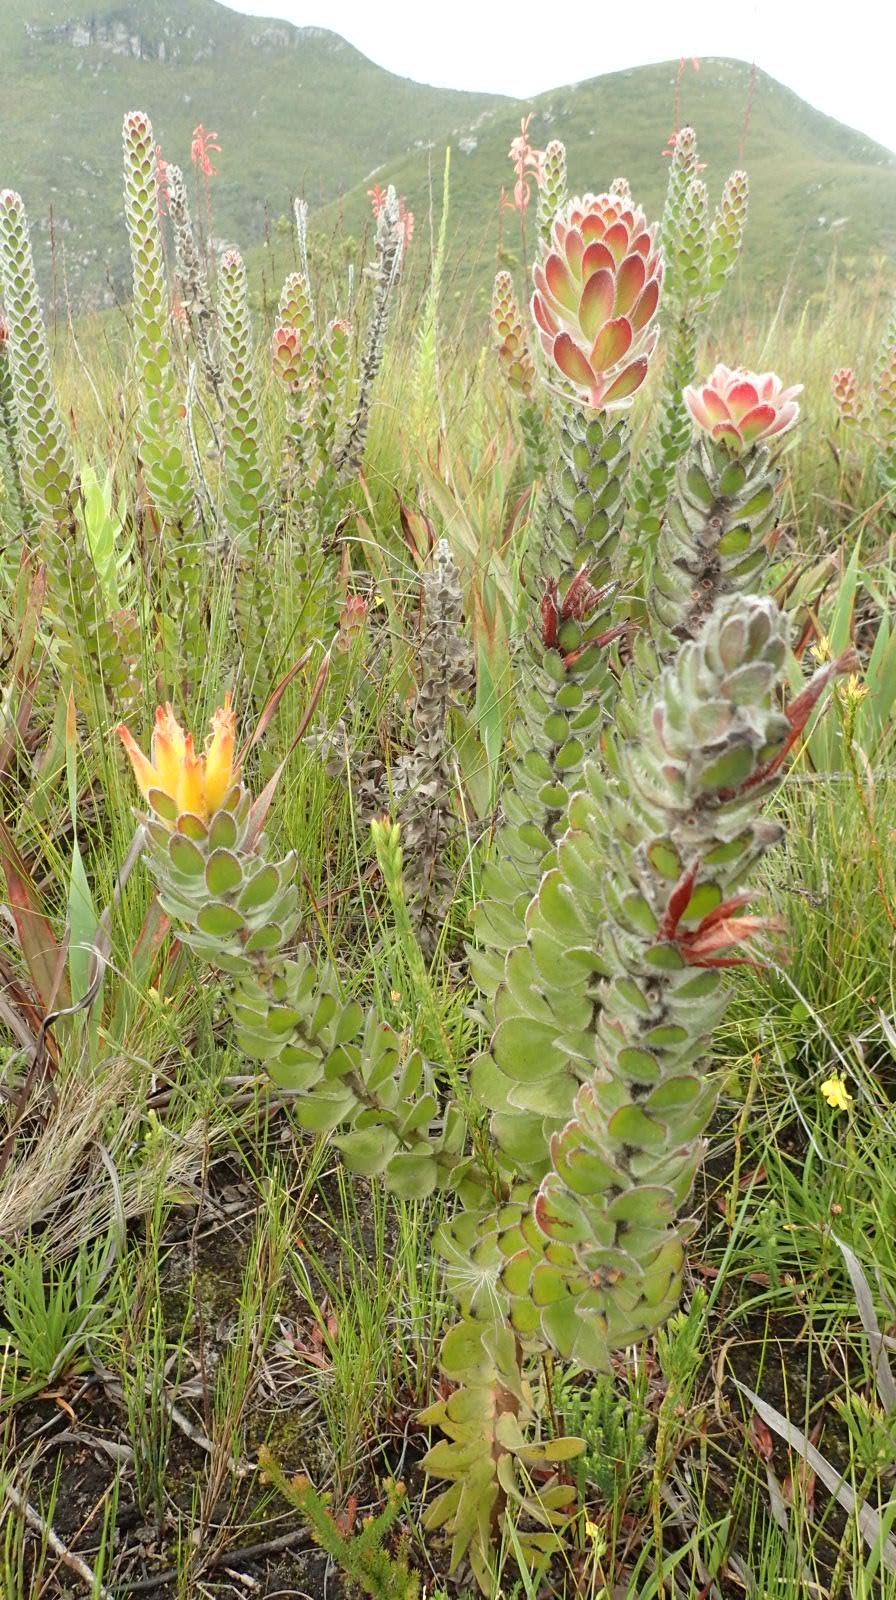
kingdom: Plantae
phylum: Tracheophyta
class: Magnoliopsida
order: Proteales
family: Proteaceae
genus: Mimetes
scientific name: Mimetes pauciflora
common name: Three-flowered pagoda
